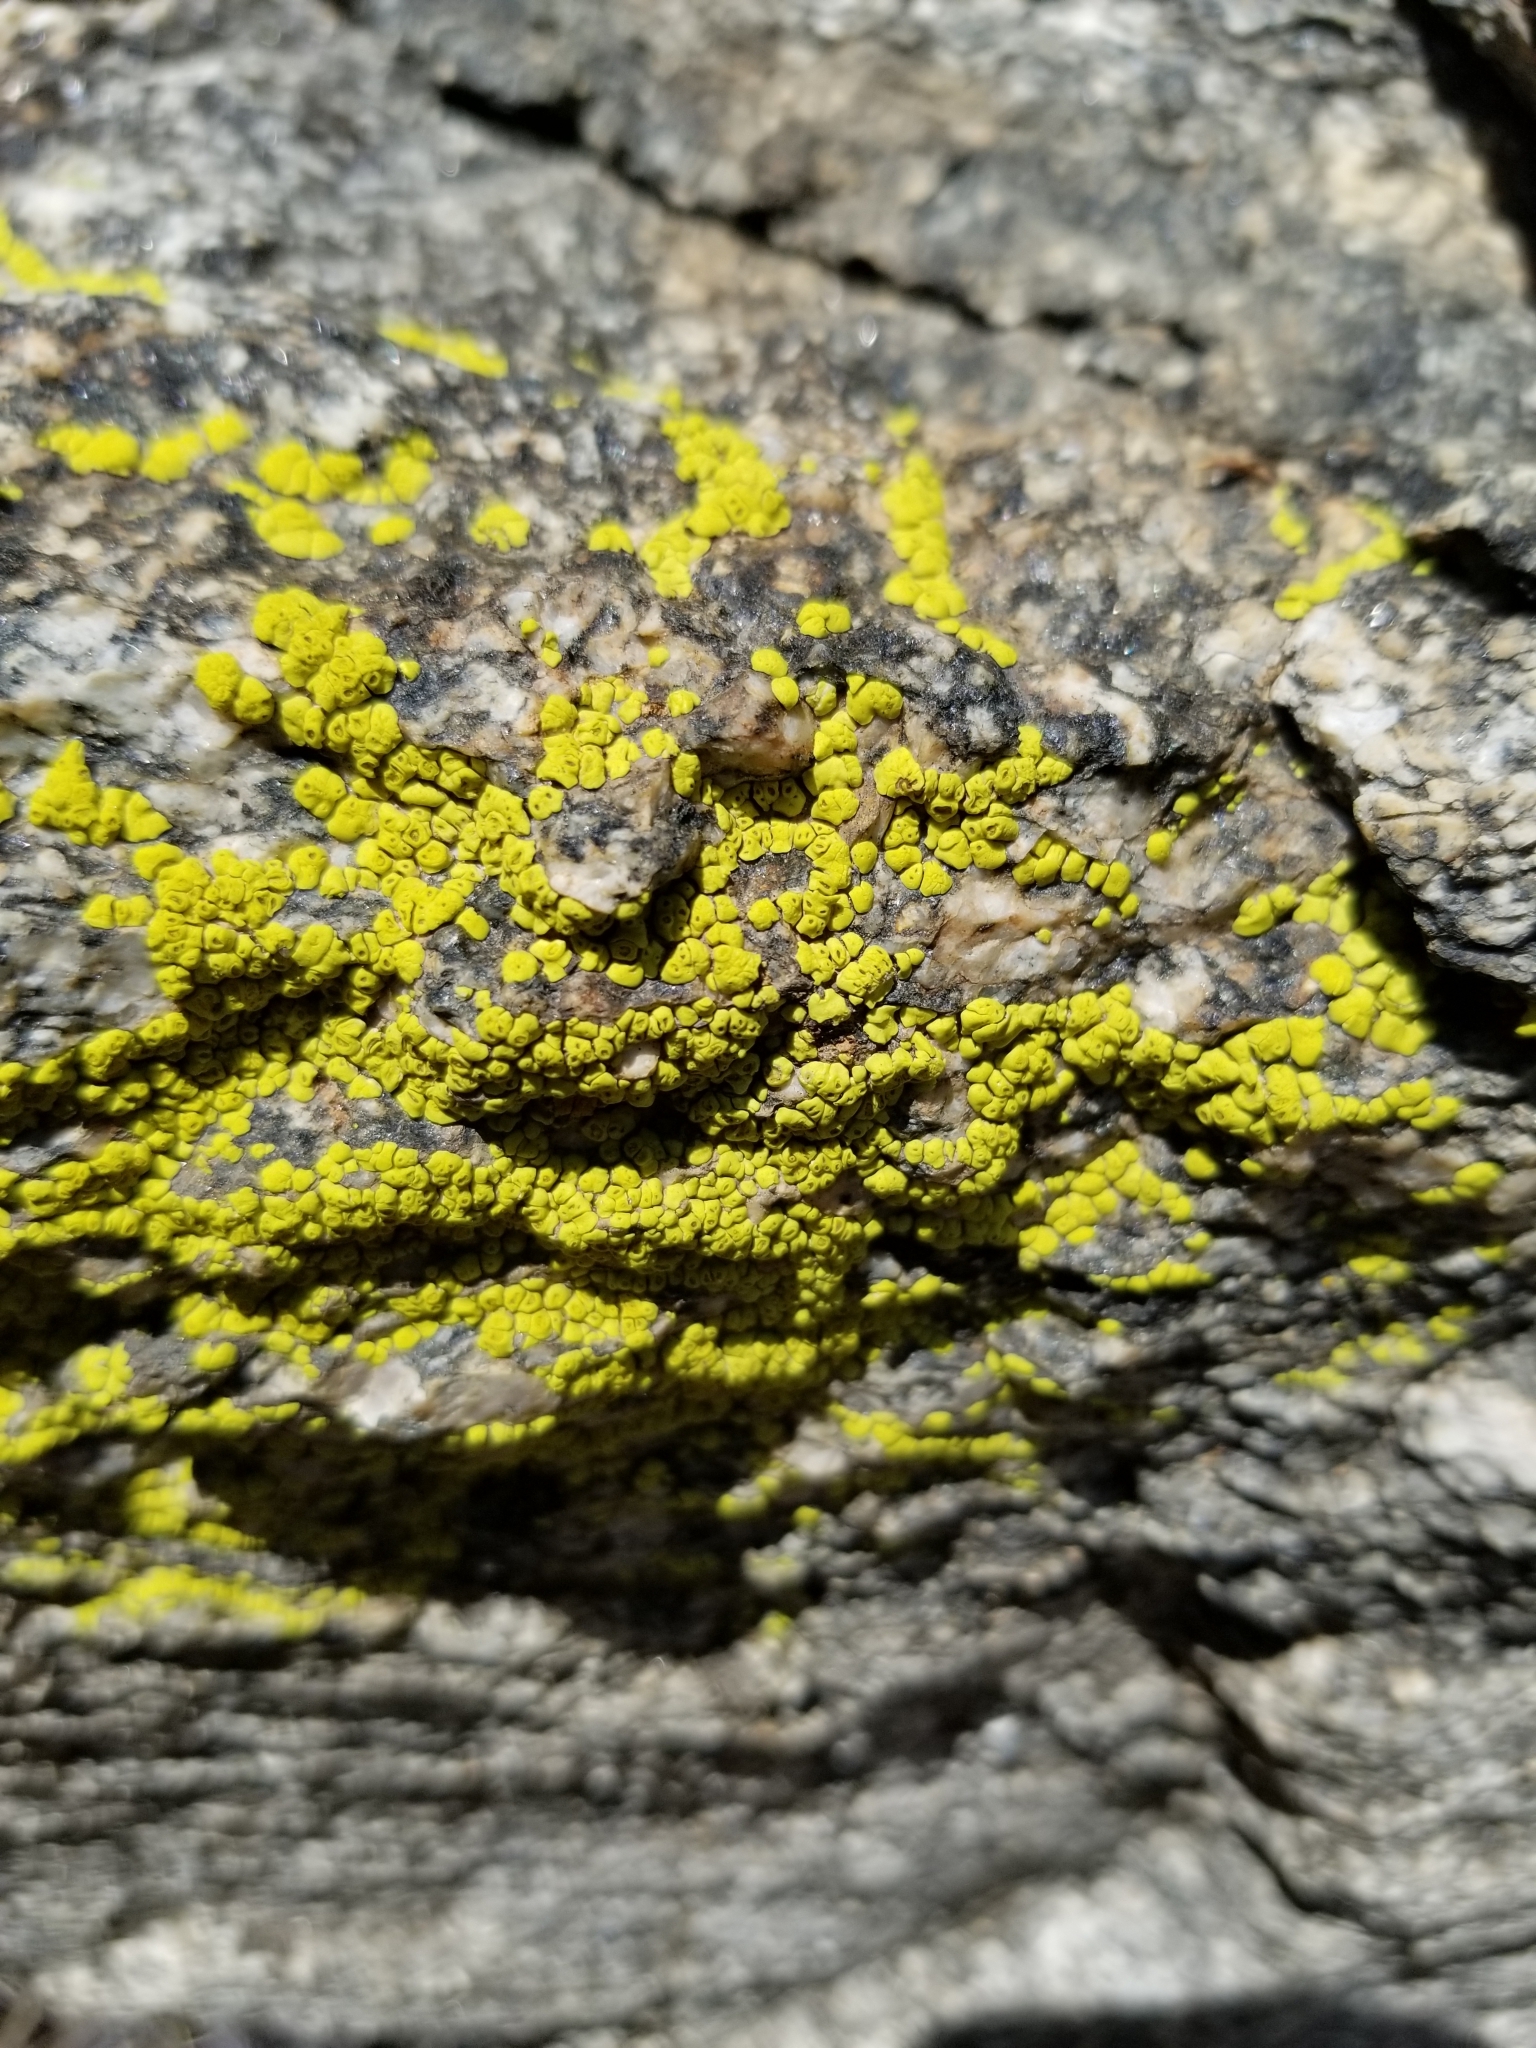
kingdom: Fungi
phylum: Ascomycota
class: Lecanoromycetes
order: Acarosporales
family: Acarosporaceae
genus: Acarospora
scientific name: Acarospora socialis
